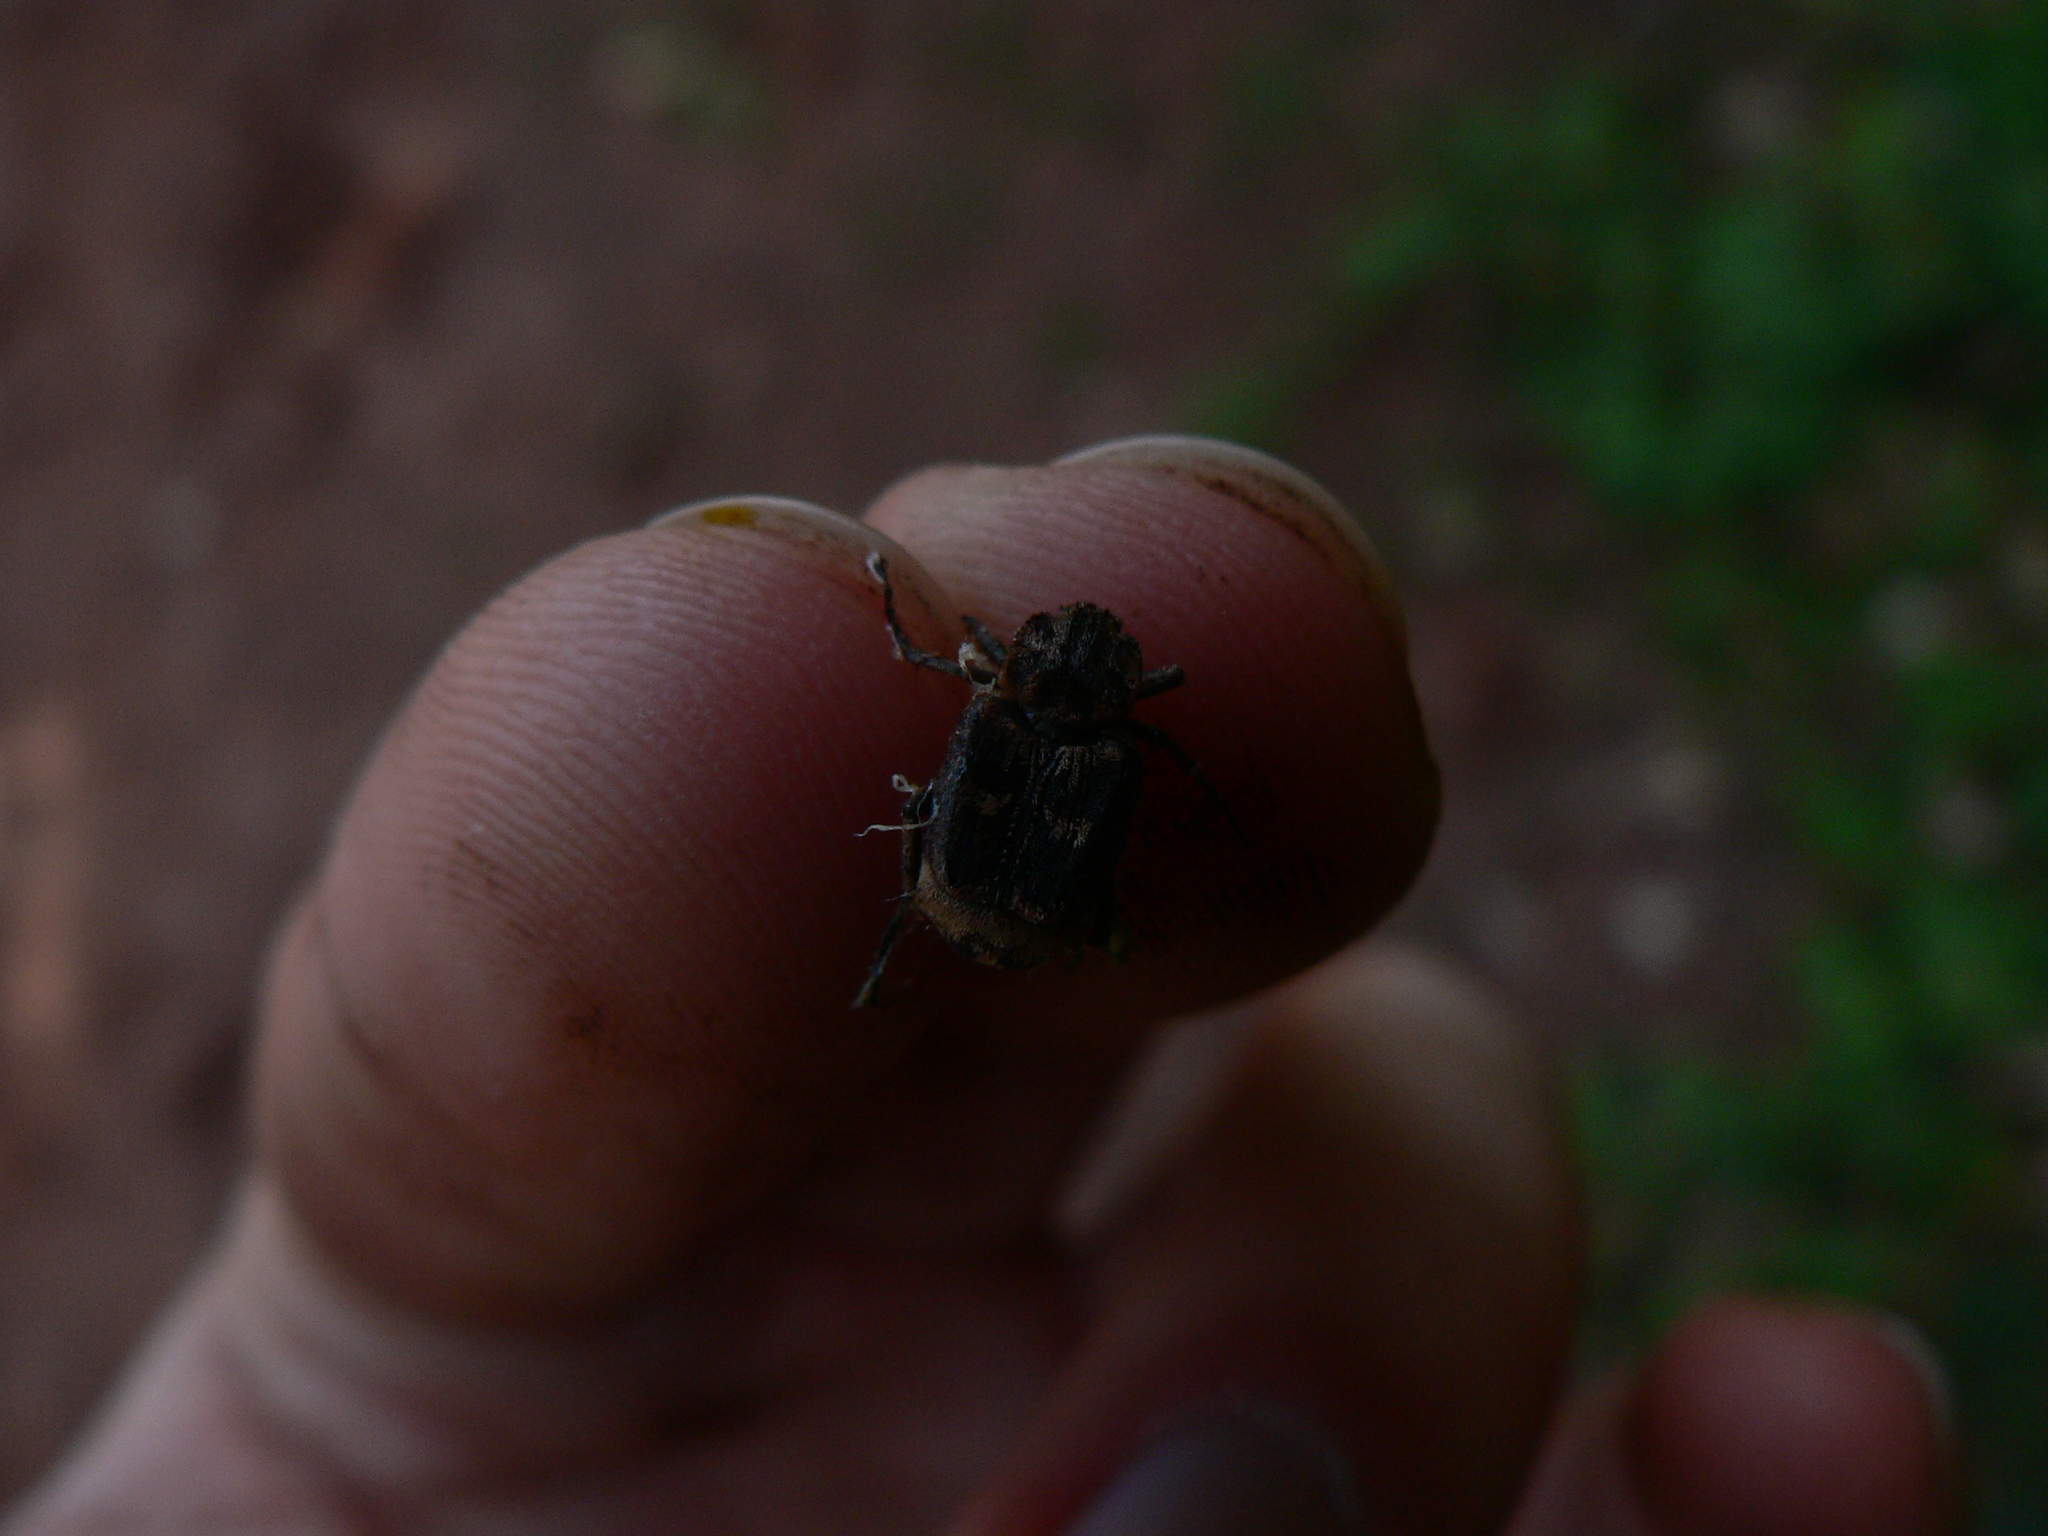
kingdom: Animalia
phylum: Arthropoda
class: Insecta
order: Coleoptera
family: Scarabaeidae
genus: Valgus
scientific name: Valgus hemipterus
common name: Bug flower chafer
